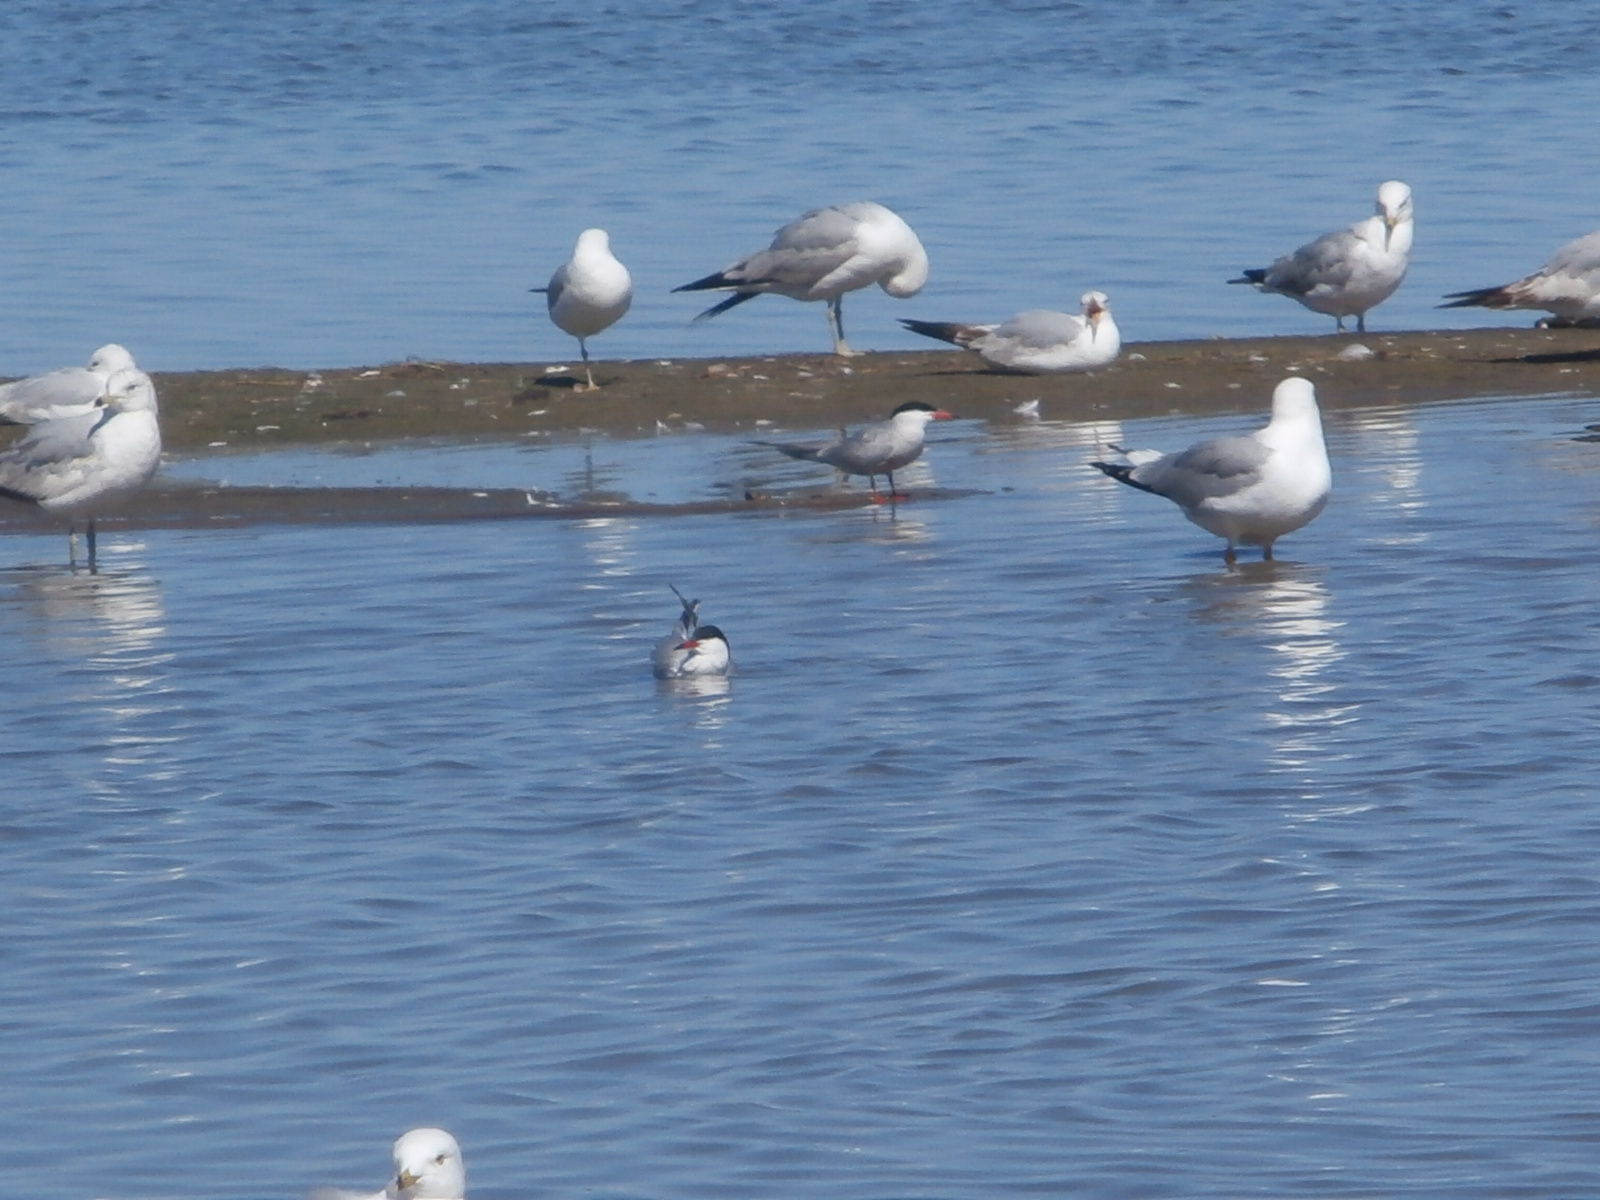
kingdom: Animalia
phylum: Chordata
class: Aves
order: Charadriiformes
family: Laridae
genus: Hydroprogne
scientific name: Hydroprogne caspia
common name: Caspian tern
